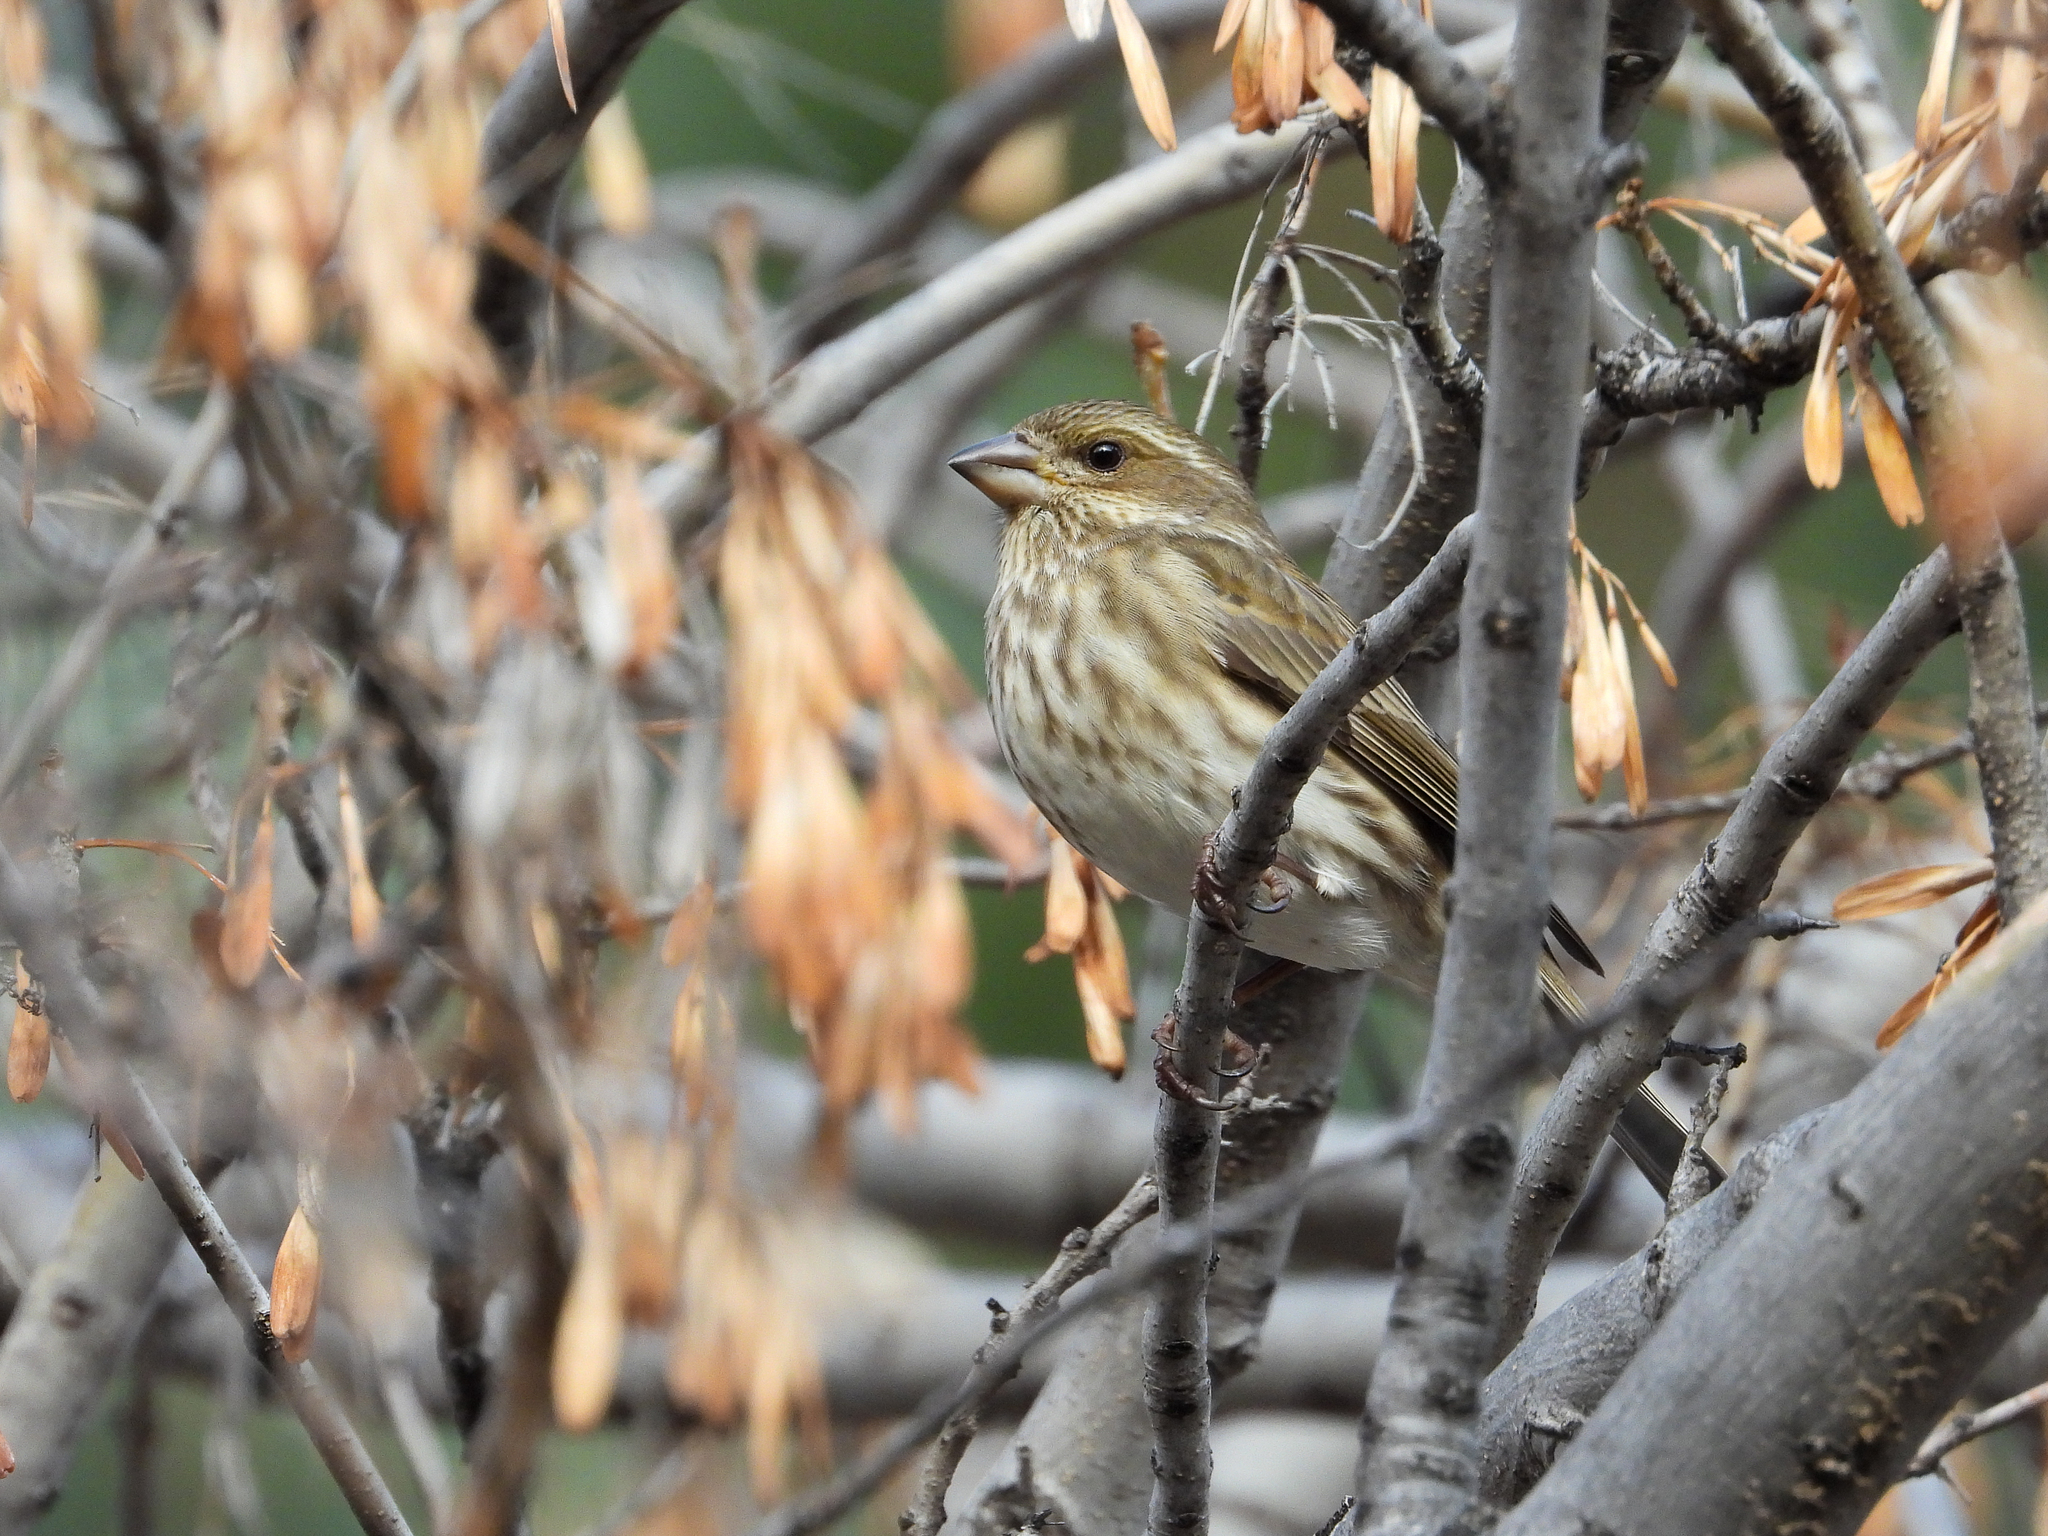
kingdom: Animalia
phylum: Chordata
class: Aves
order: Passeriformes
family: Fringillidae
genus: Haemorhous
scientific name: Haemorhous purpureus
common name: Purple finch
